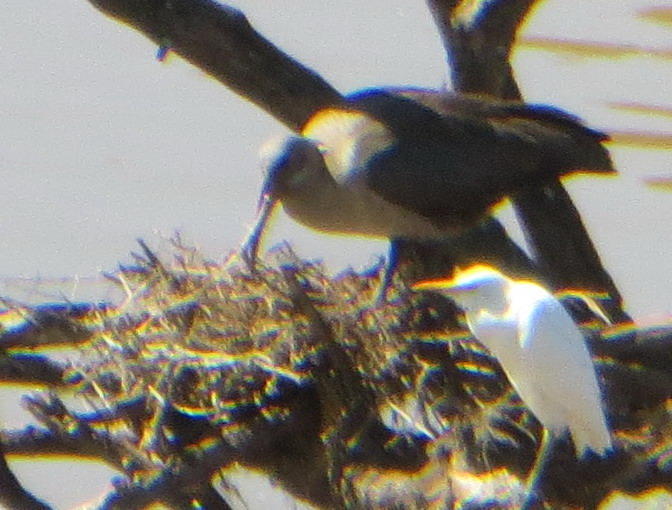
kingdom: Animalia
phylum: Chordata
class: Aves
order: Pelecaniformes
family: Threskiornithidae
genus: Bostrychia
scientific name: Bostrychia hagedash
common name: Hadada ibis
